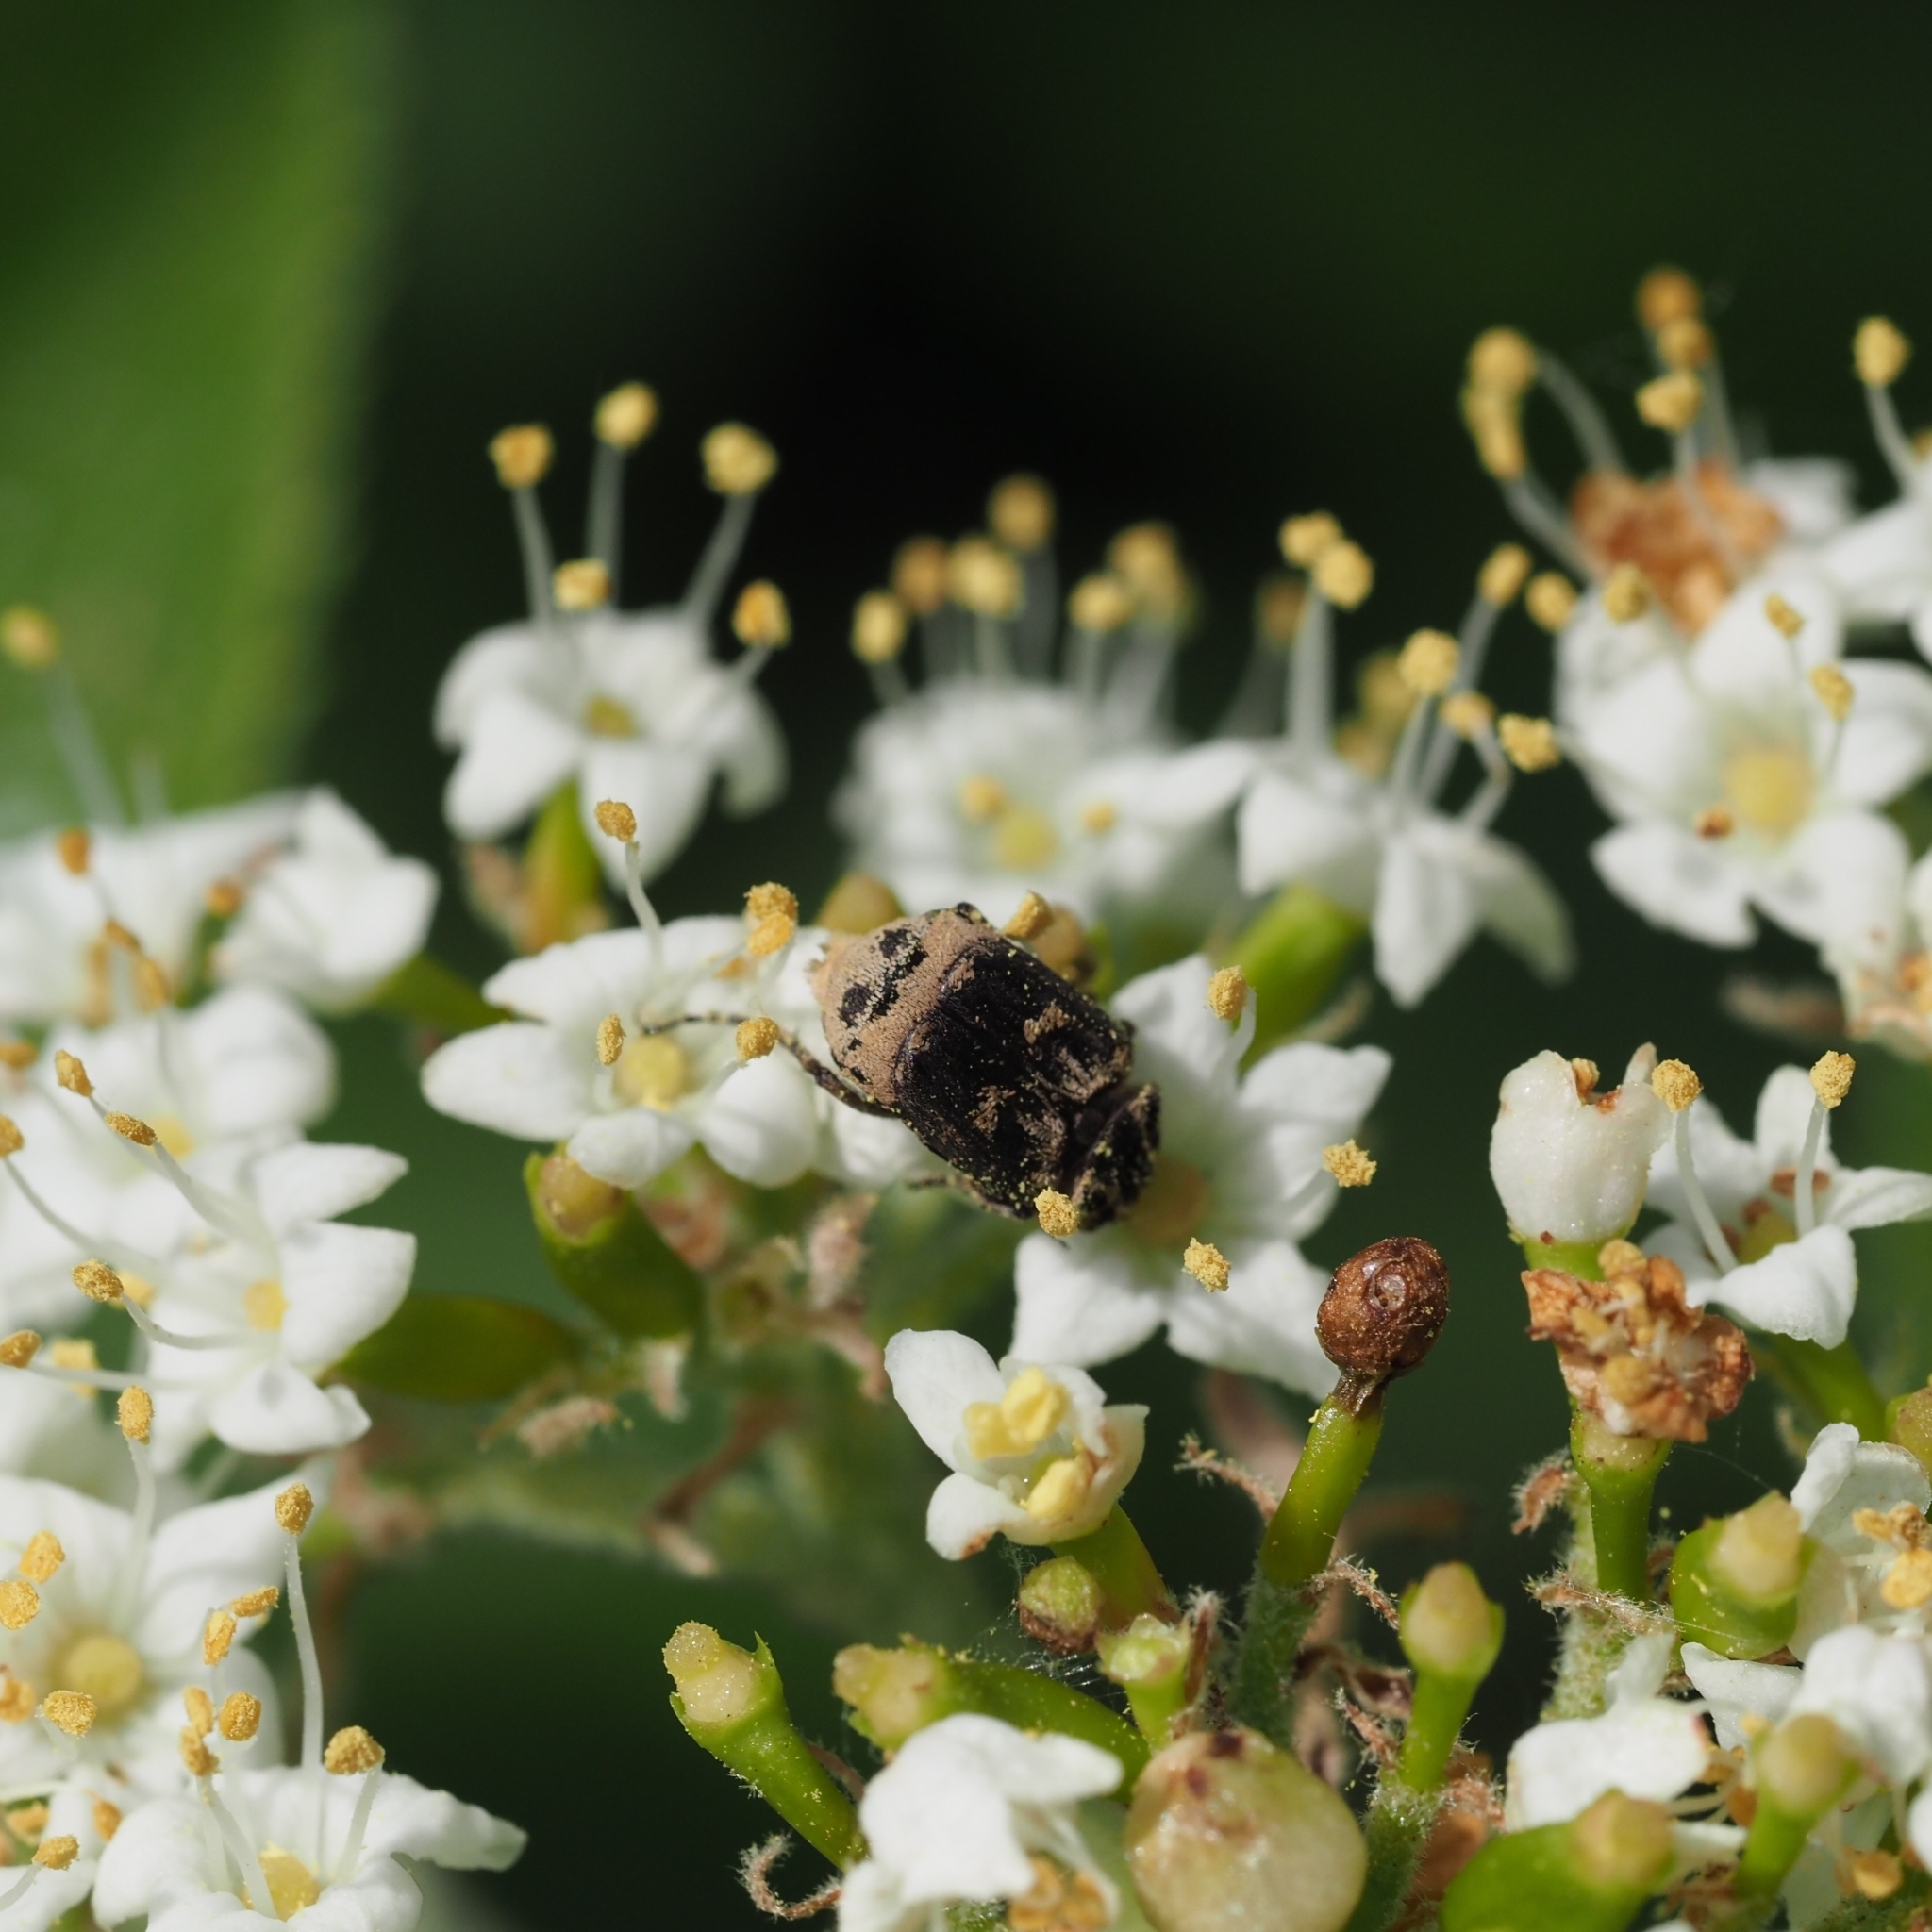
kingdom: Animalia
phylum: Arthropoda
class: Insecta
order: Coleoptera
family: Scarabaeidae
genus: Valgus
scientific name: Valgus hemipterus
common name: Bug flower chafer
